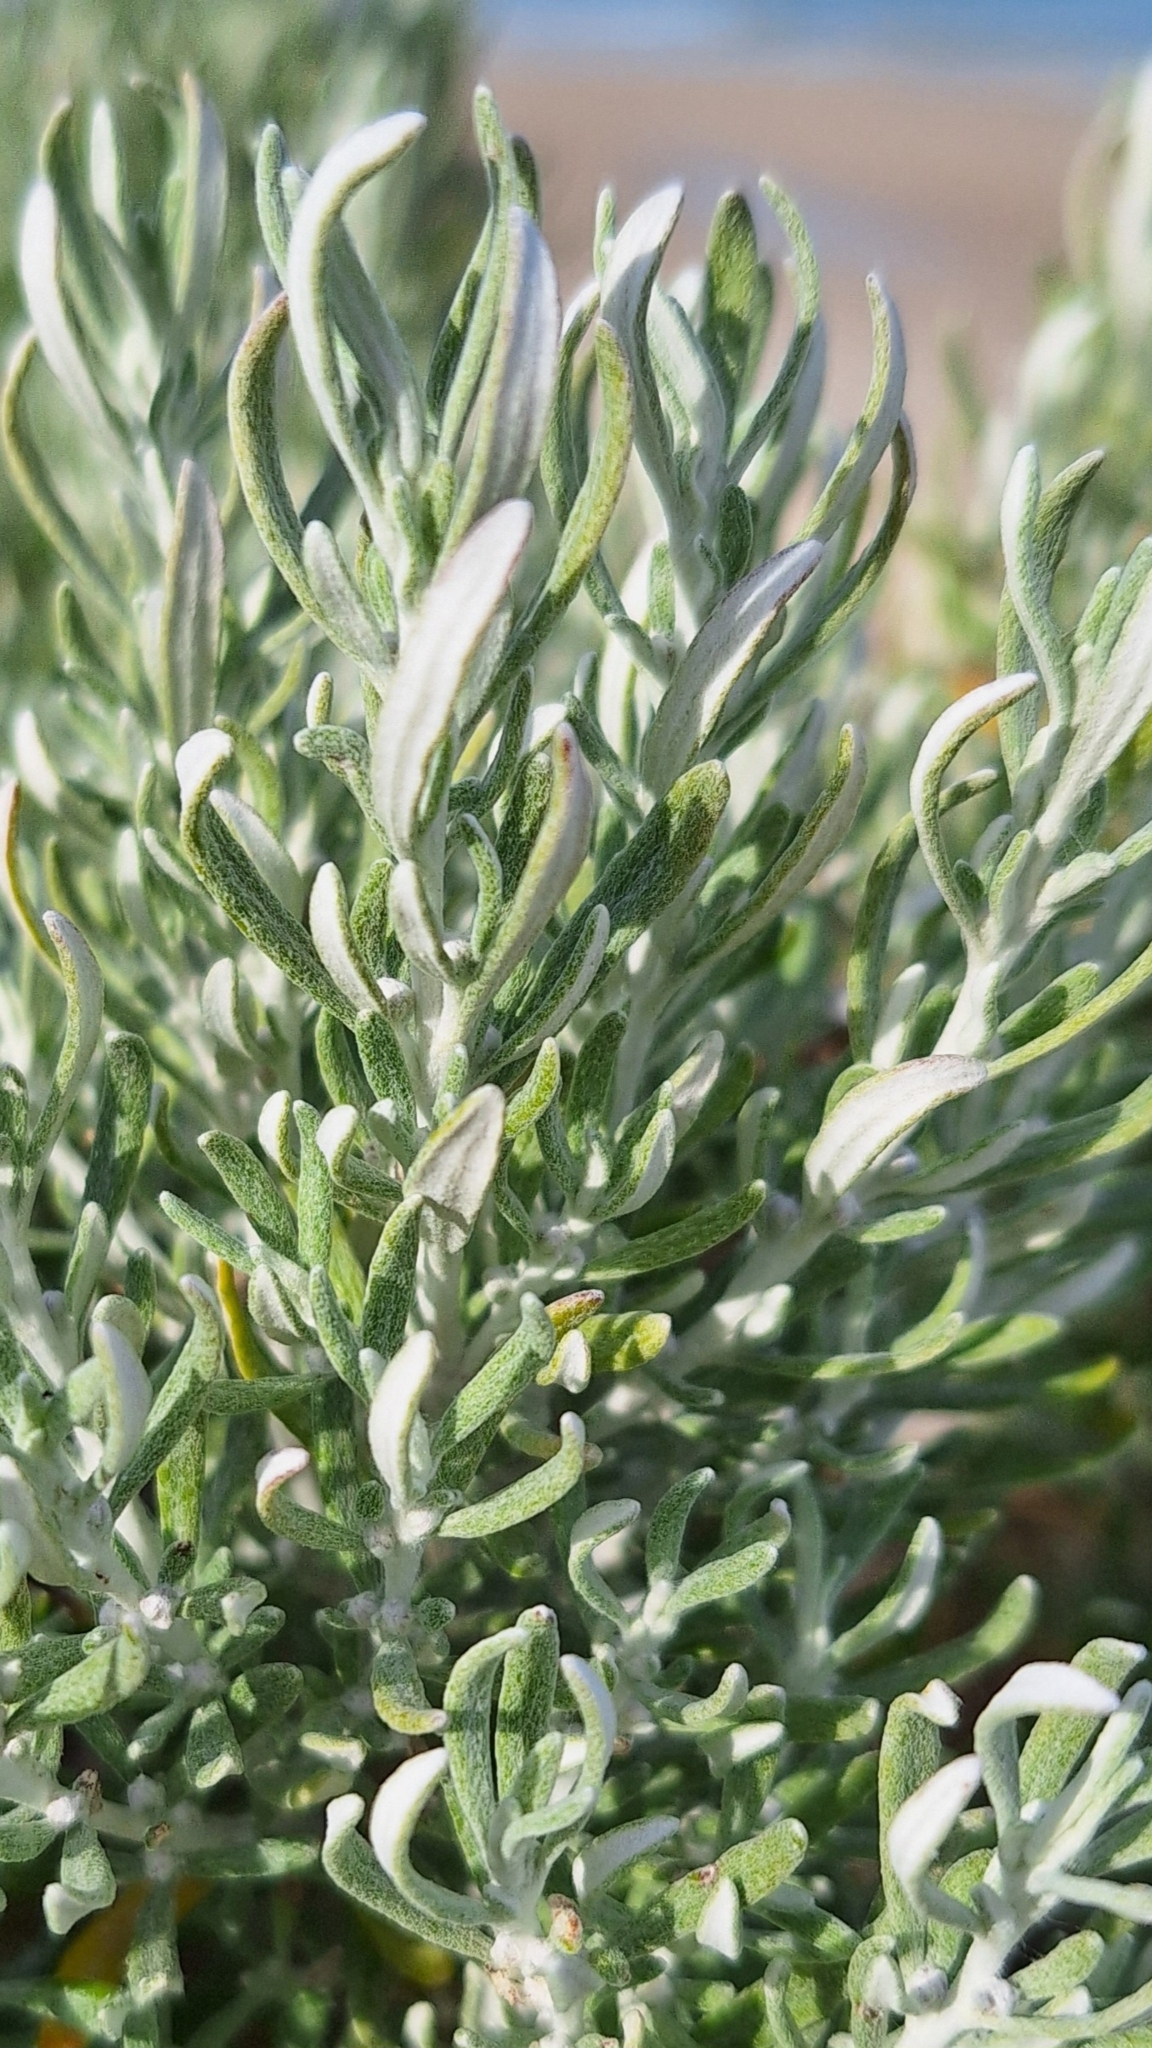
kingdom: Plantae
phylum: Tracheophyta
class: Magnoliopsida
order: Asterales
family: Asteraceae
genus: Olearia
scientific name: Olearia axillaris
